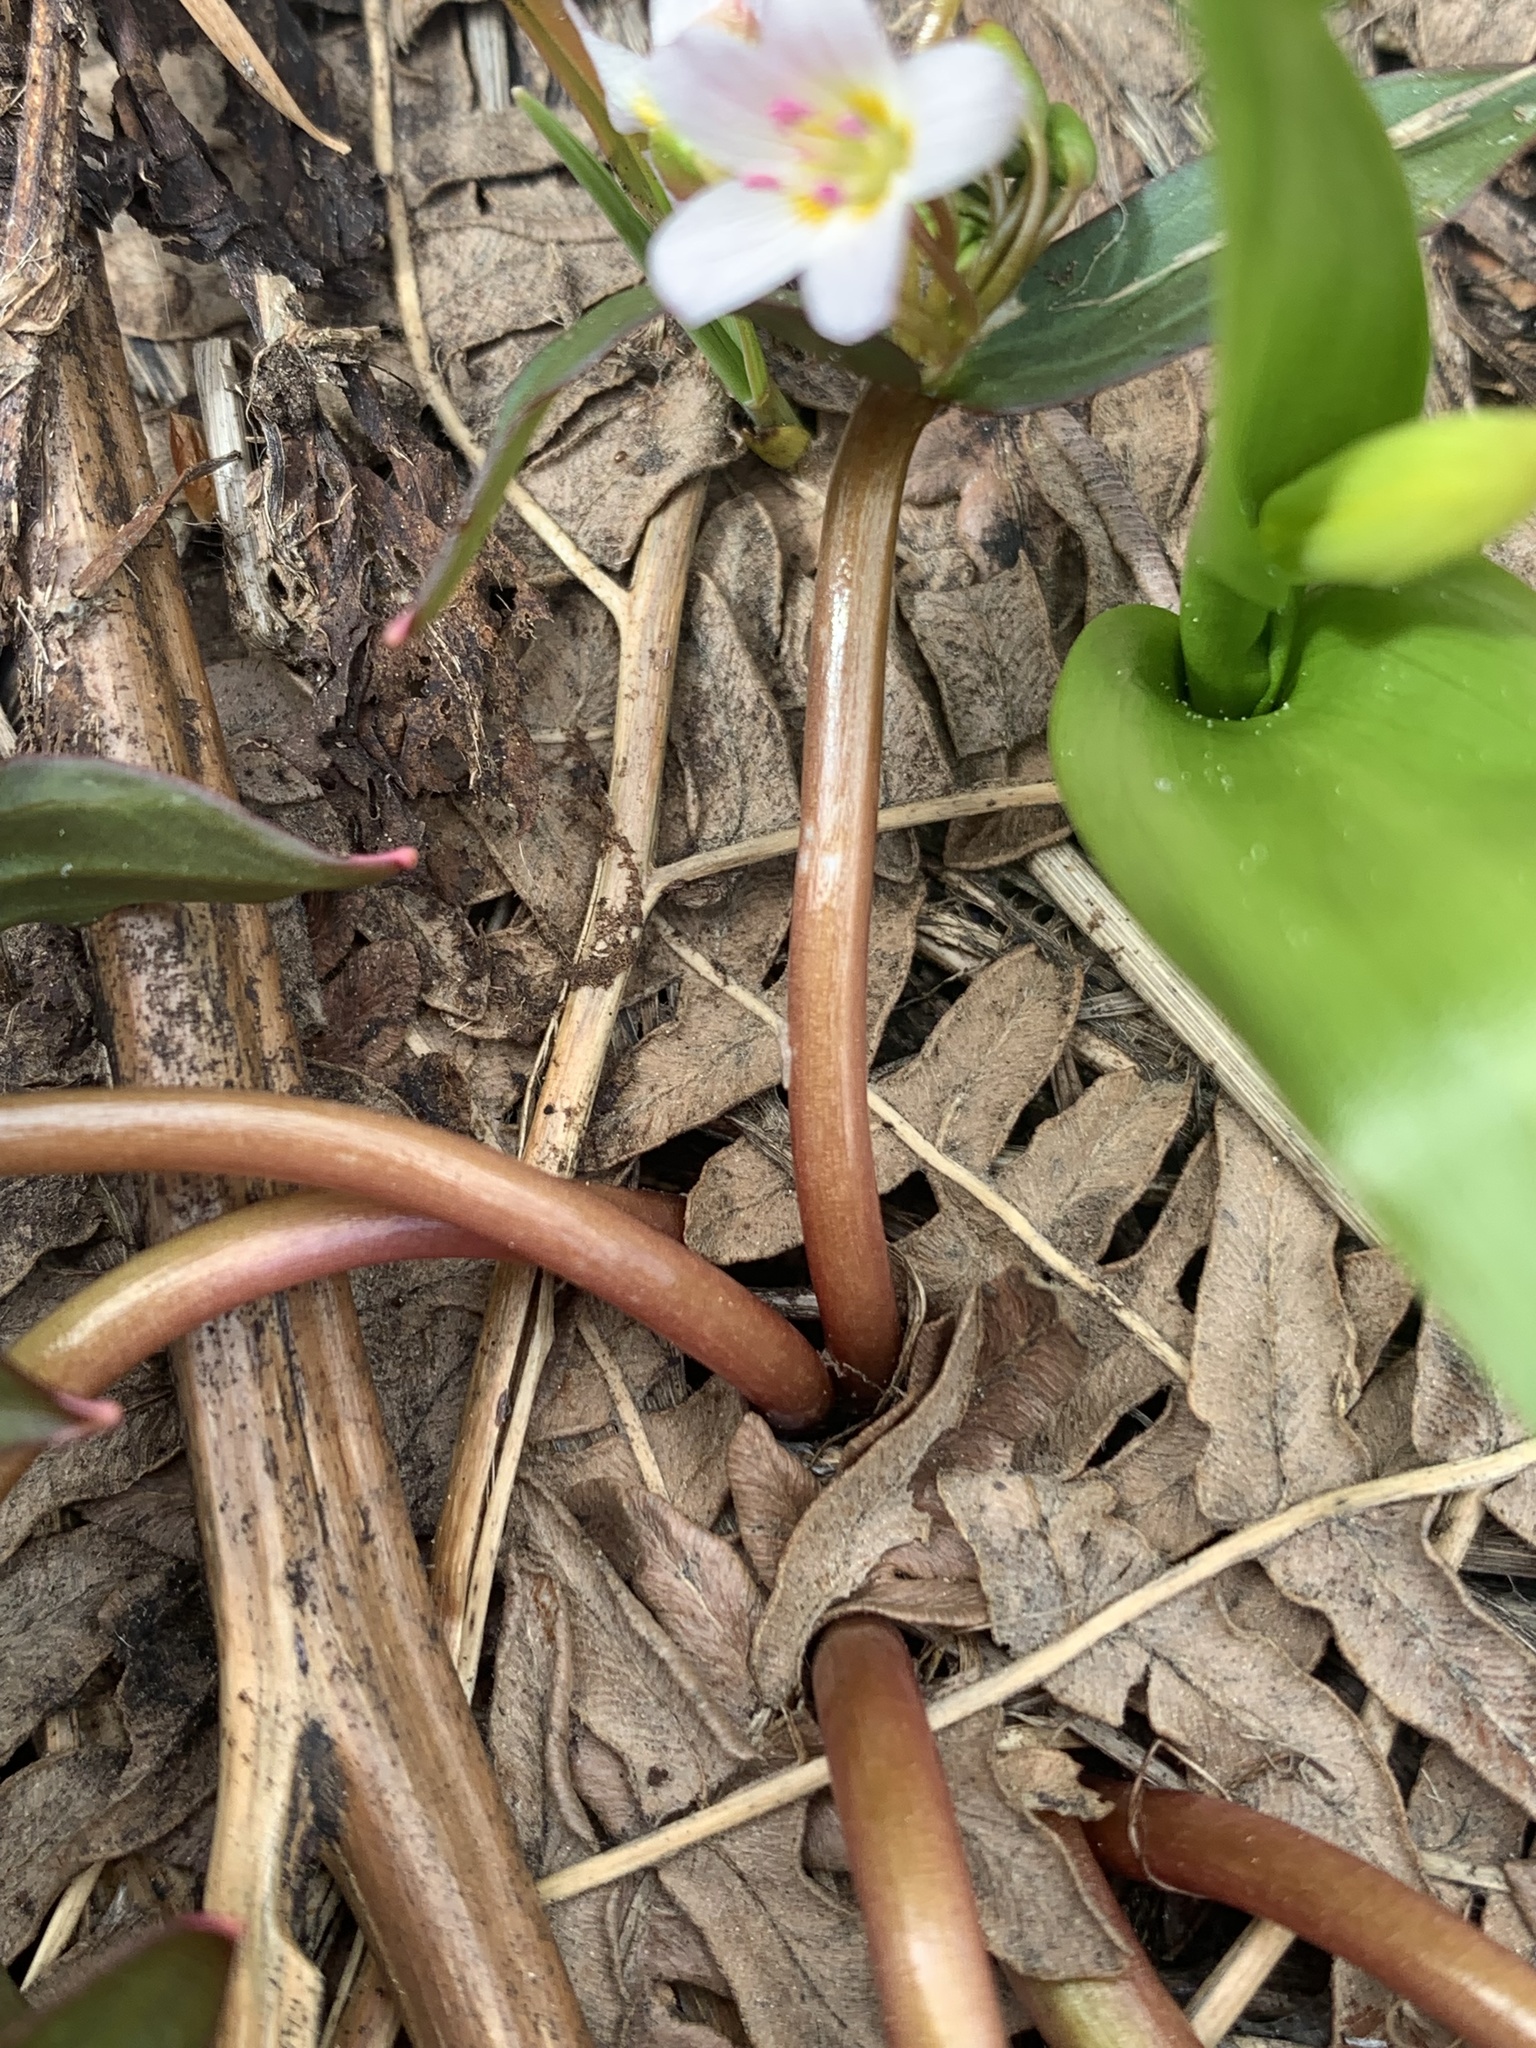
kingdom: Plantae
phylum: Tracheophyta
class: Magnoliopsida
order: Caryophyllales
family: Montiaceae
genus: Claytonia
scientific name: Claytonia lanceolata
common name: Western spring-beauty
